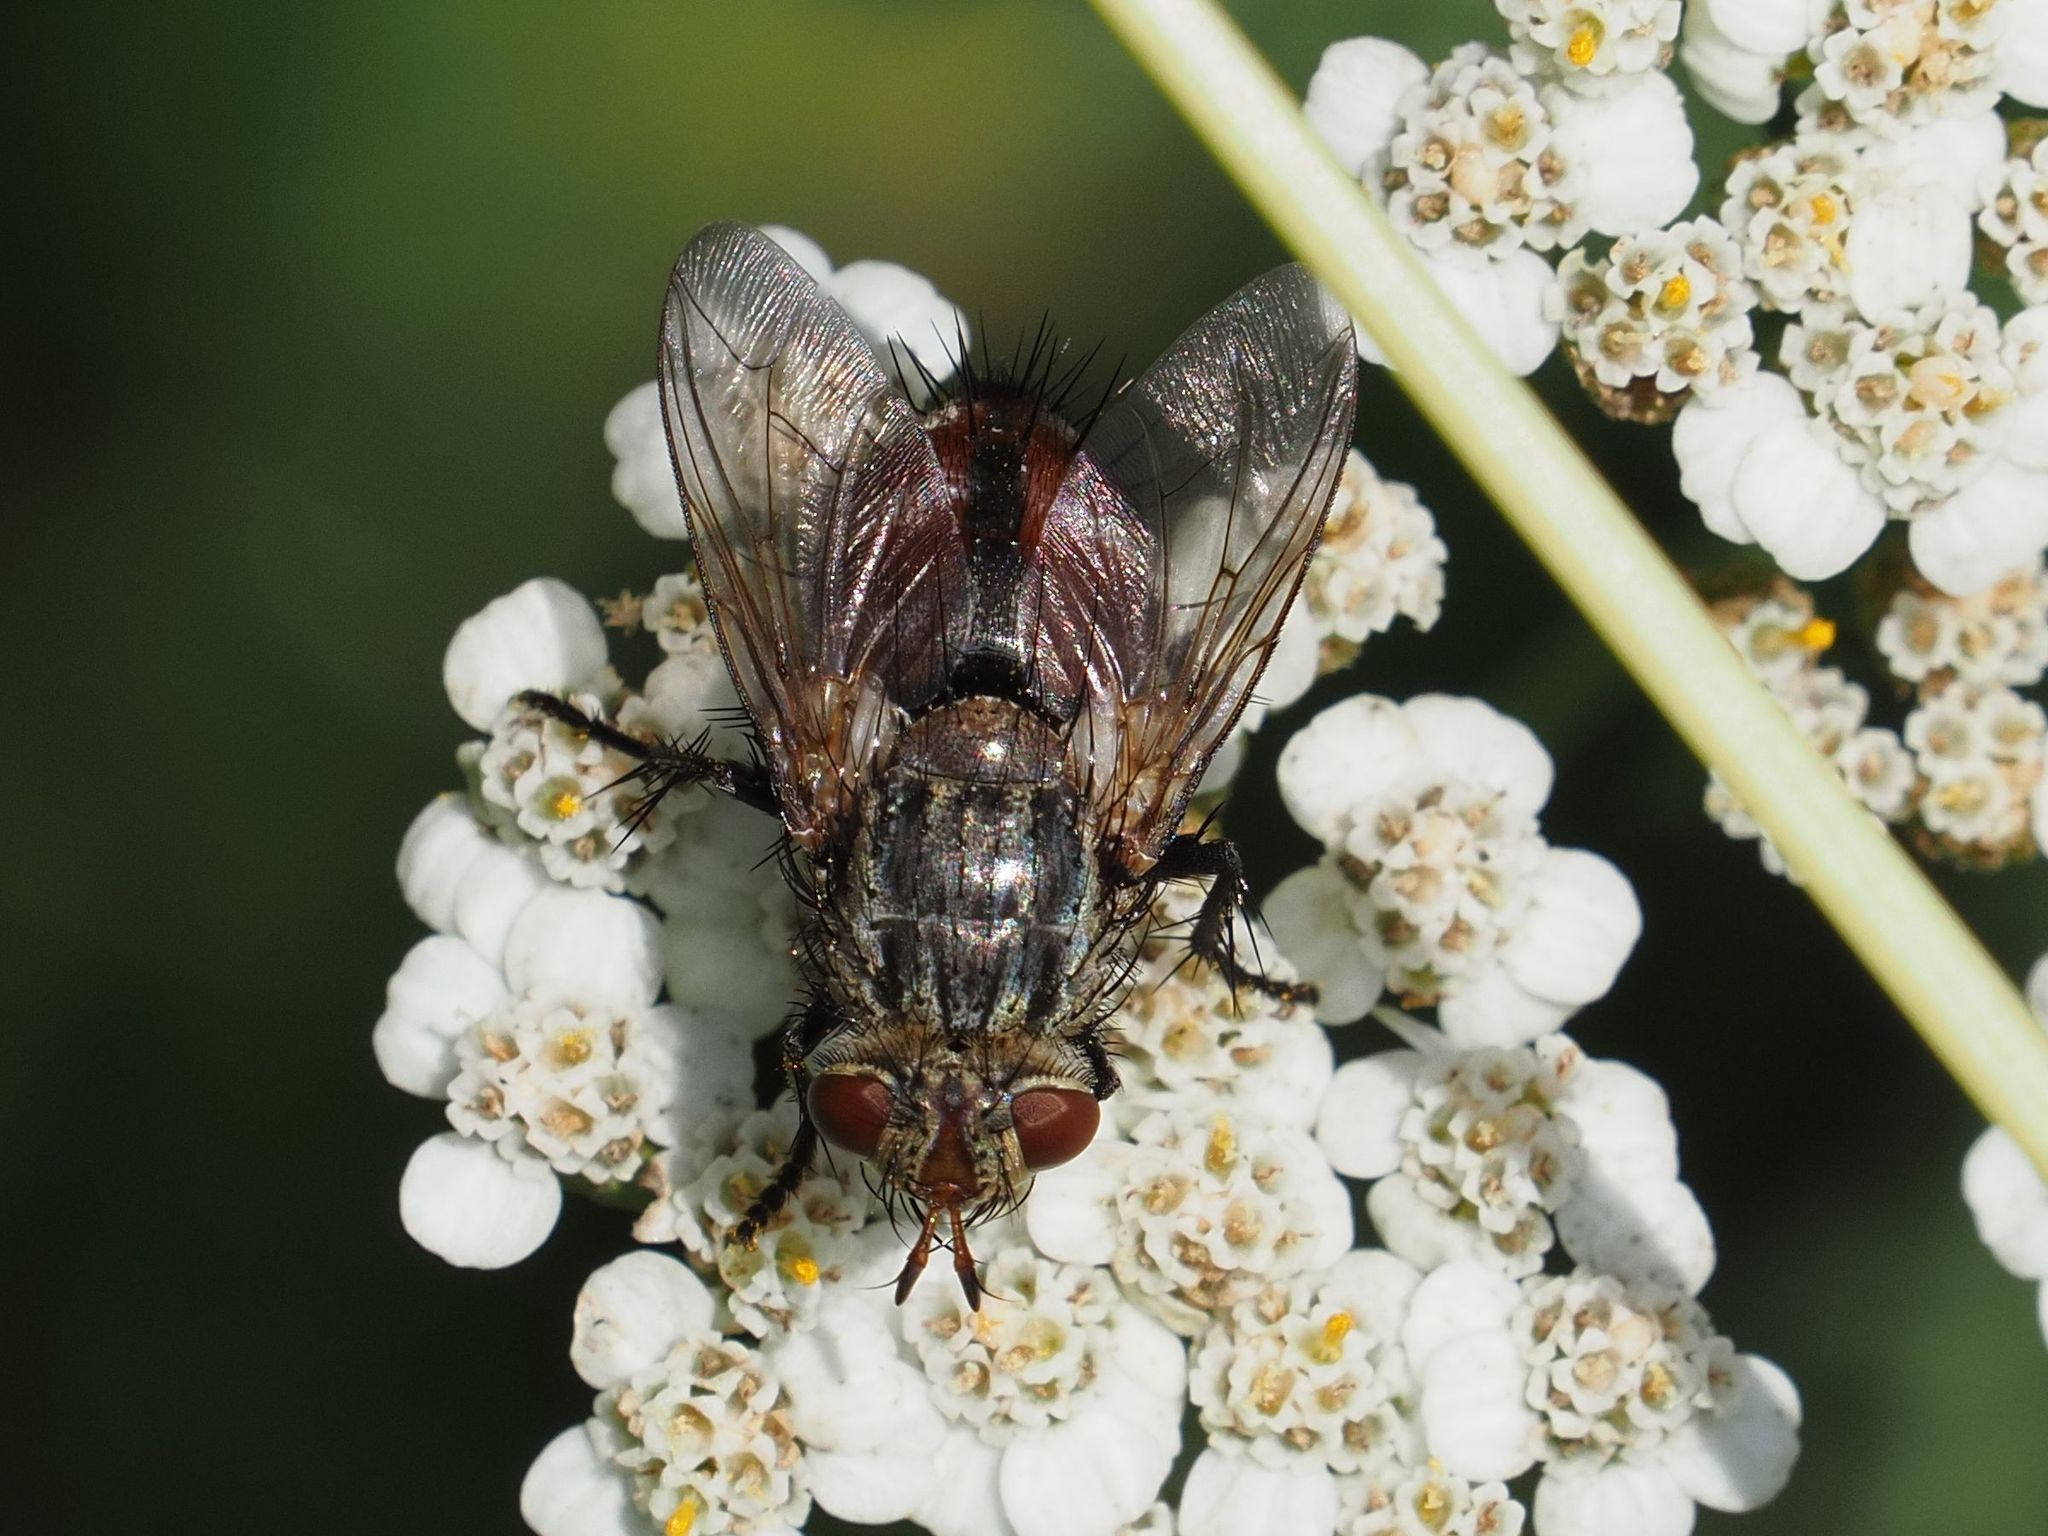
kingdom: Animalia
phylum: Arthropoda
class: Insecta
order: Diptera
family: Tachinidae
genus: Peleteria
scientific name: Peleteria javana
